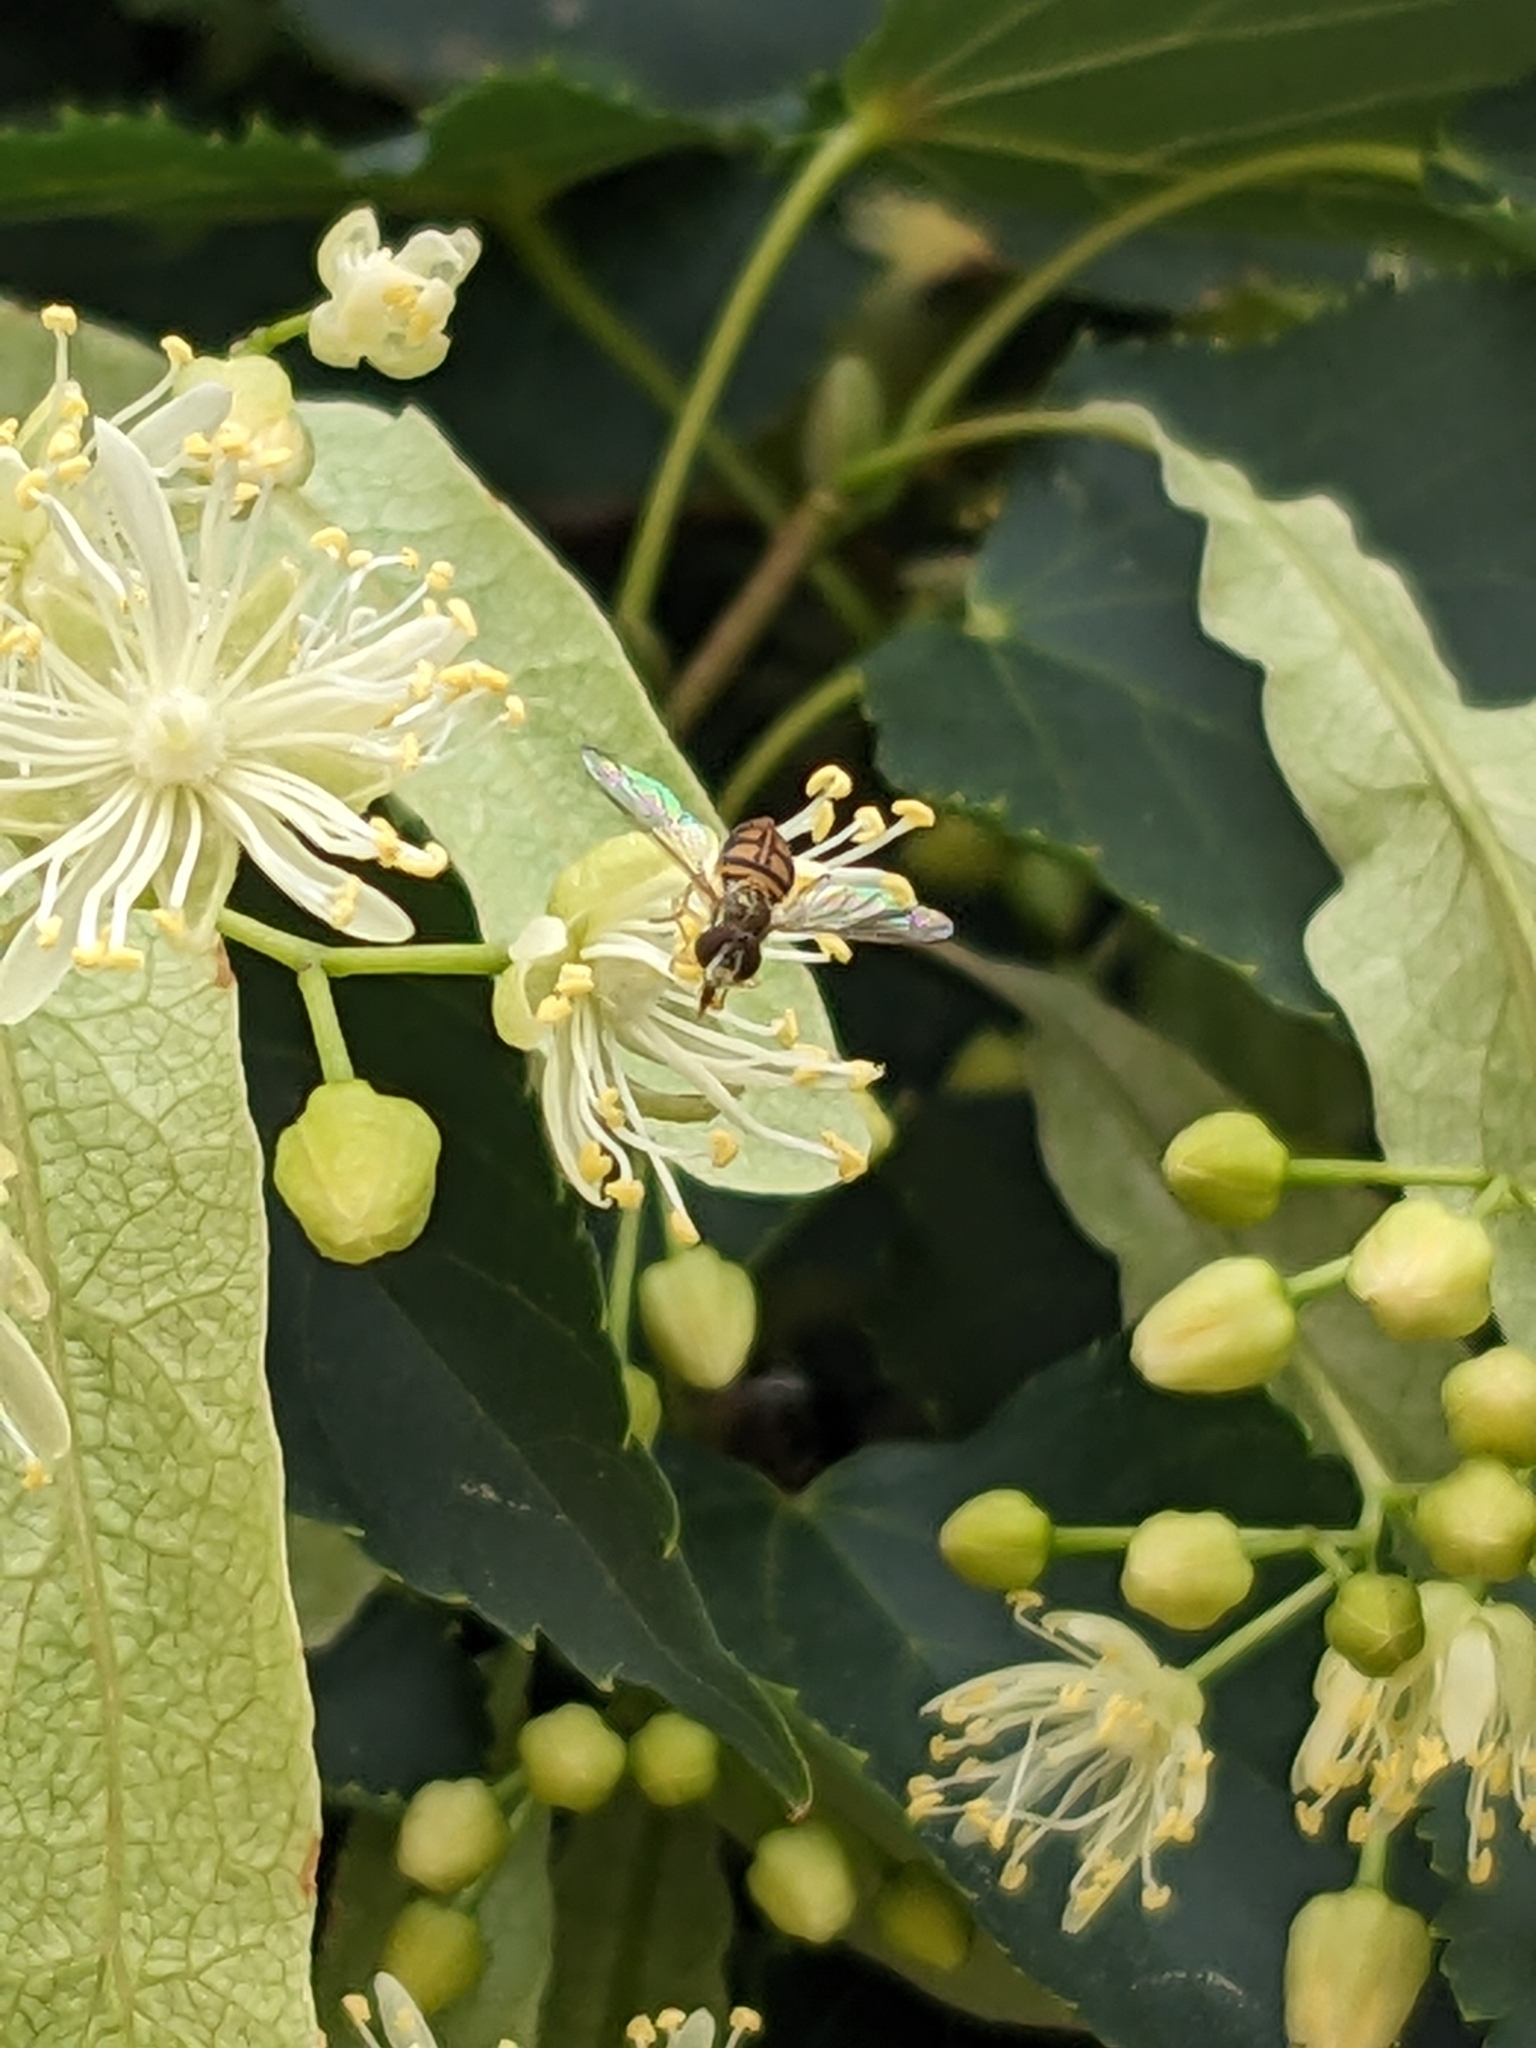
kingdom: Animalia
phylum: Arthropoda
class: Insecta
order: Diptera
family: Syrphidae
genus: Toxomerus
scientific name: Toxomerus marginatus
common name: Syrphid fly
